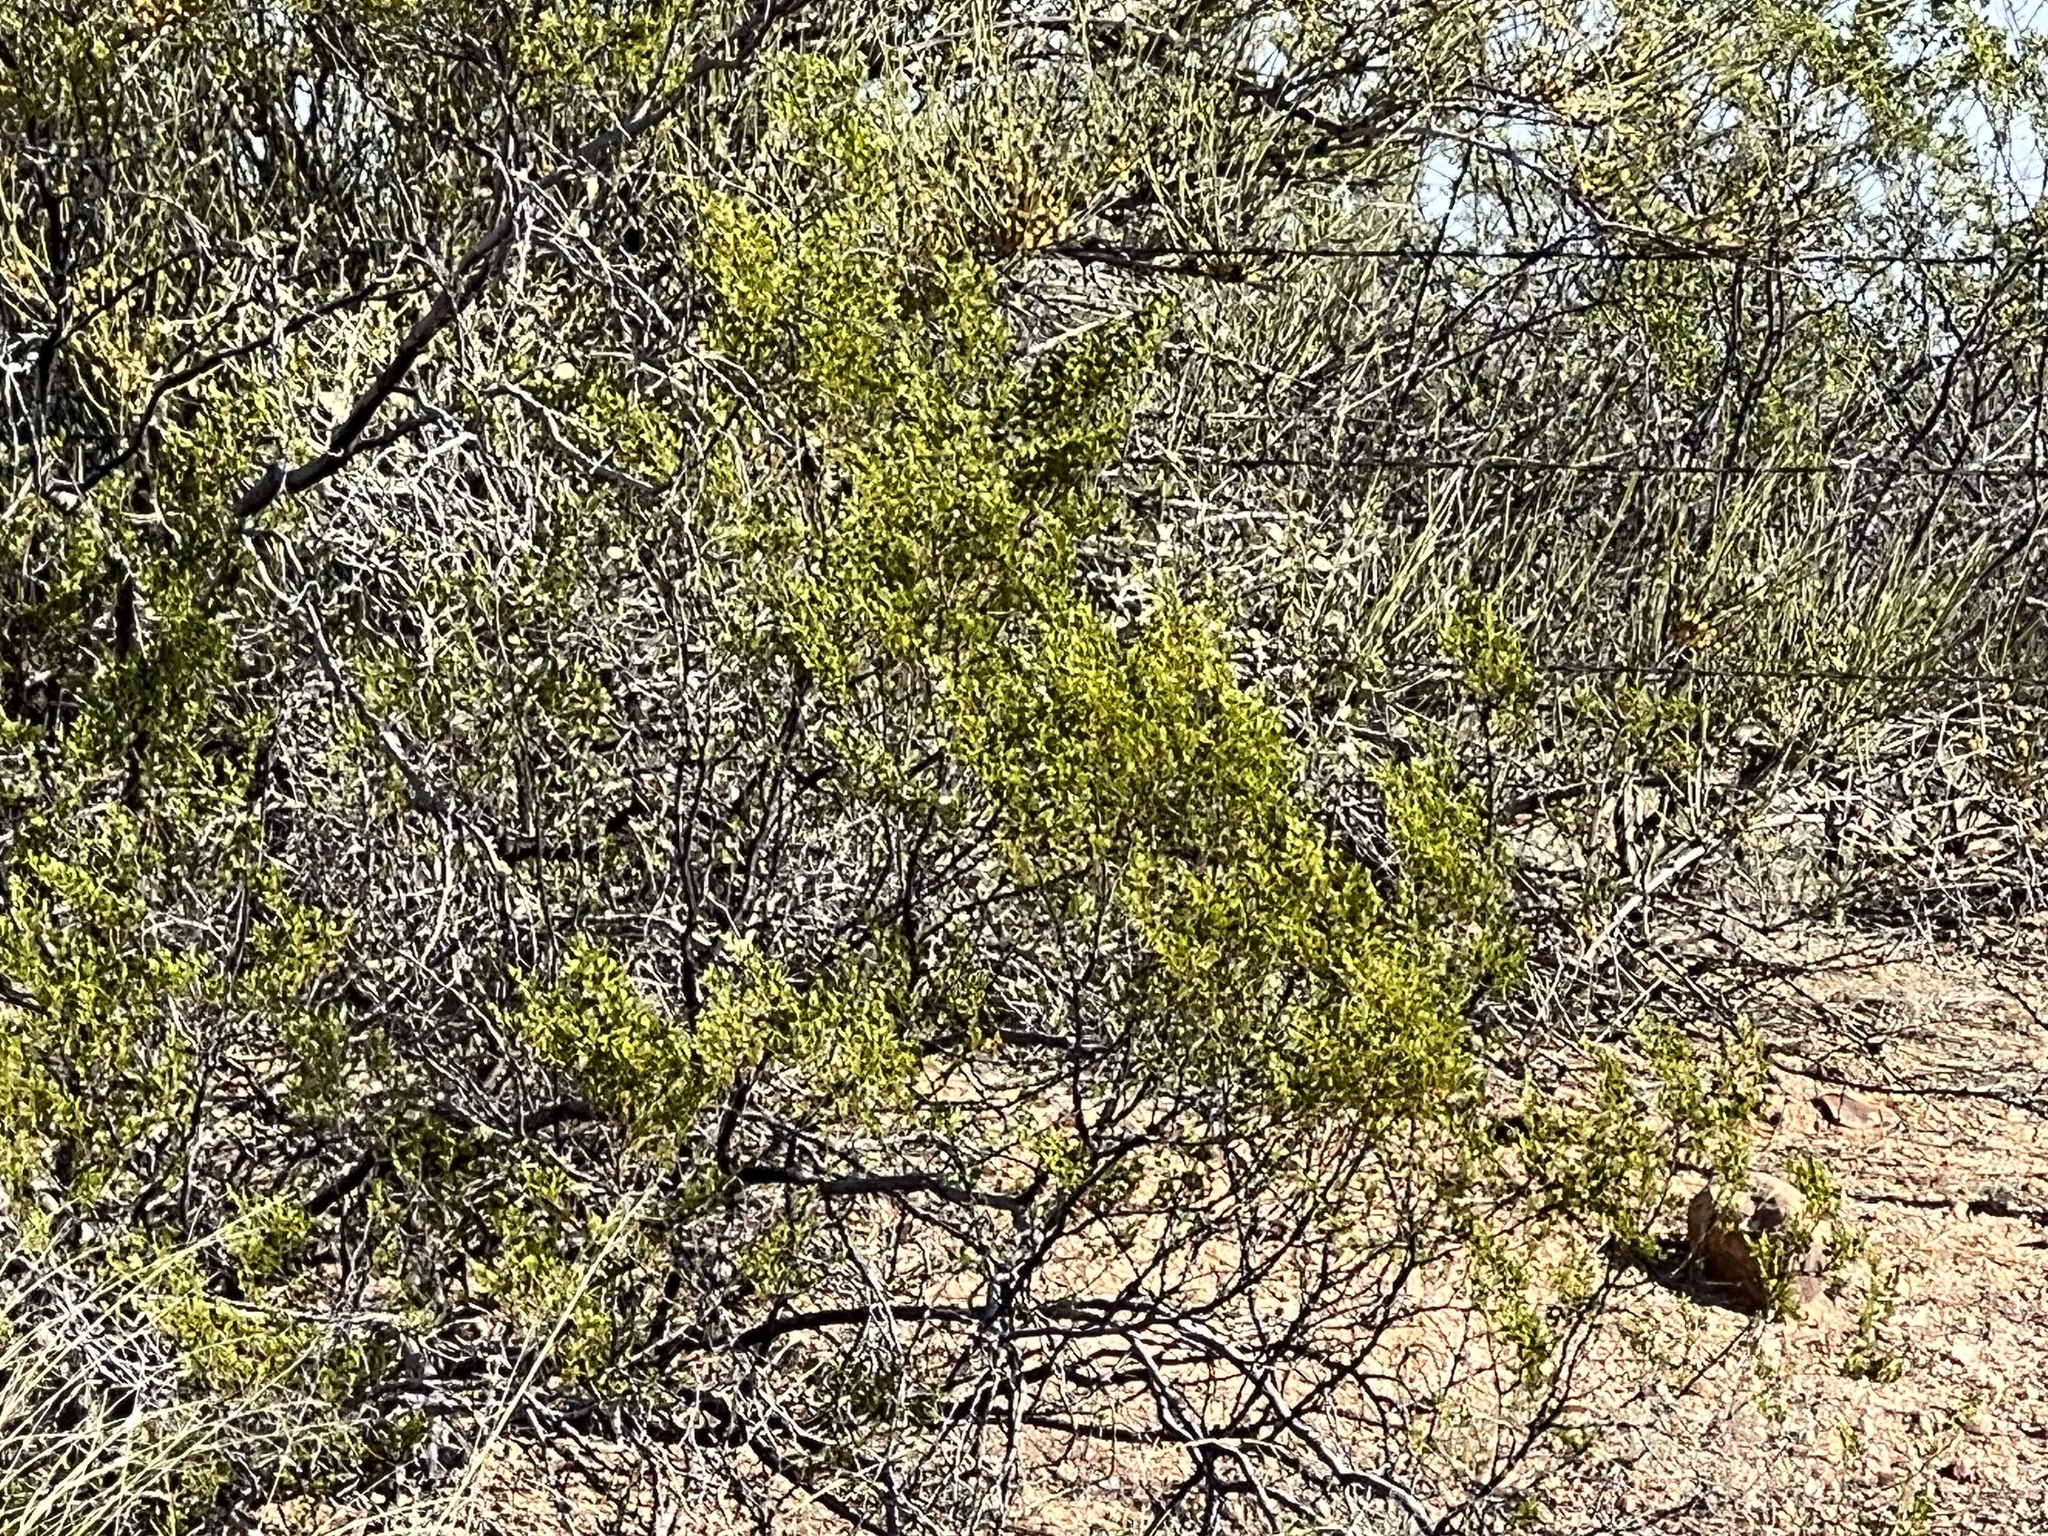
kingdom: Plantae
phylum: Tracheophyta
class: Magnoliopsida
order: Zygophyllales
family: Zygophyllaceae
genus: Larrea
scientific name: Larrea tridentata
